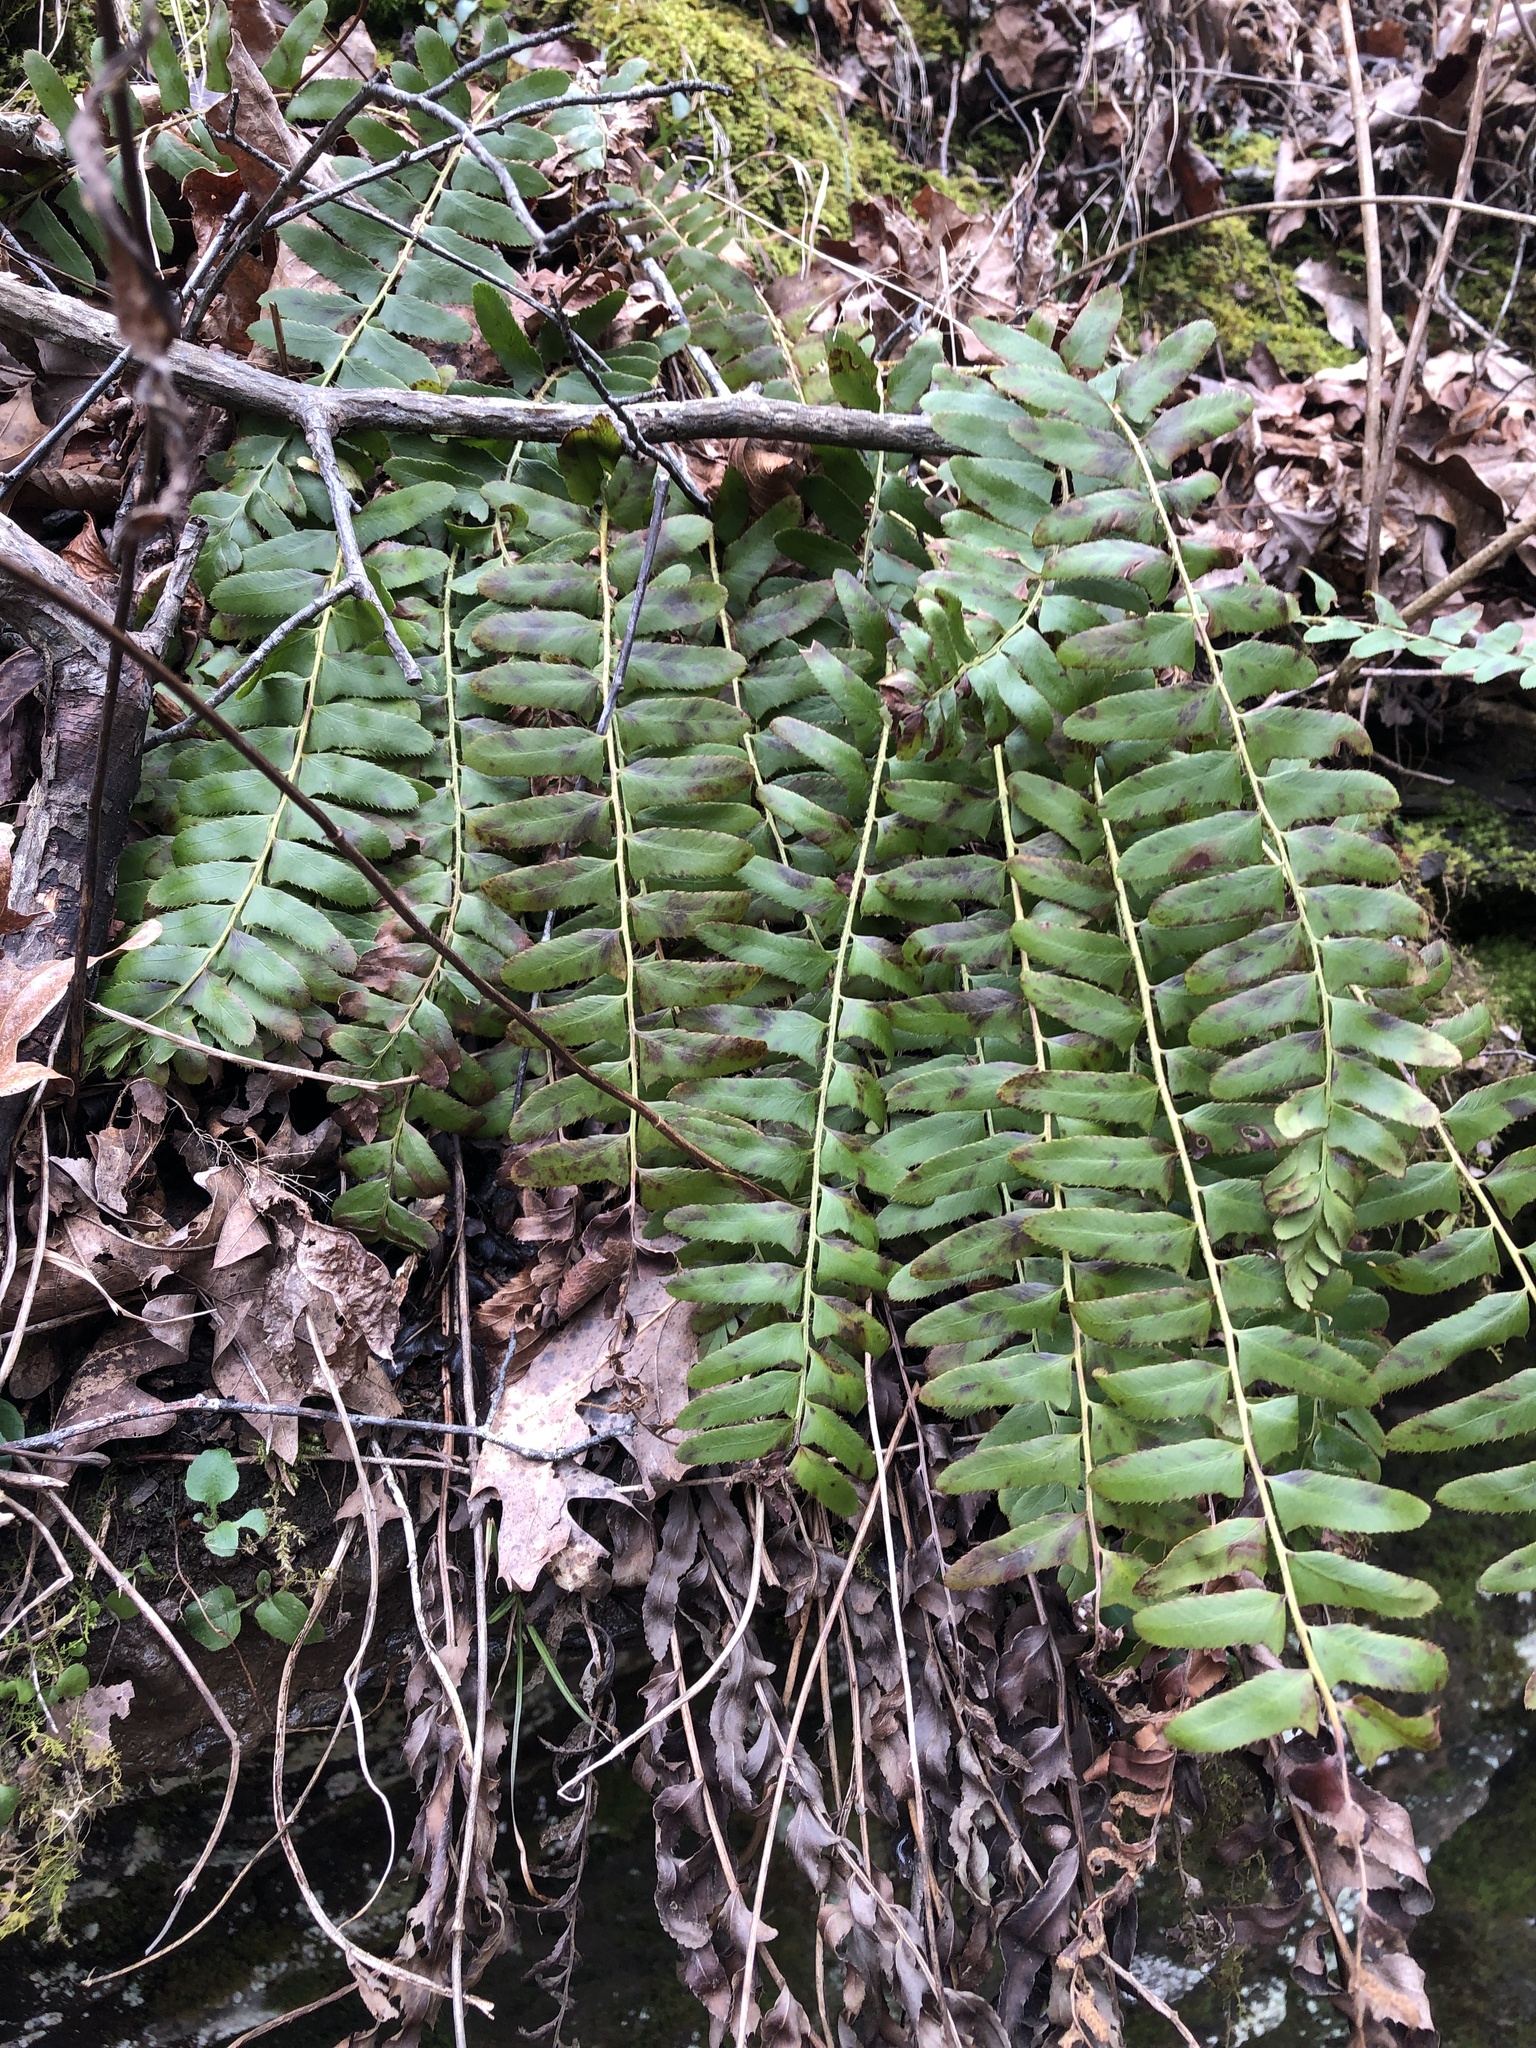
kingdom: Plantae
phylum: Tracheophyta
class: Polypodiopsida
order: Polypodiales
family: Dryopteridaceae
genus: Polystichum
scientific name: Polystichum acrostichoides
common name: Christmas fern
